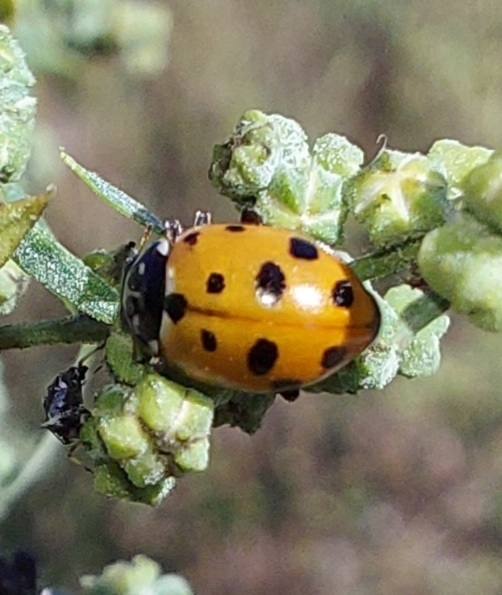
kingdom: Animalia
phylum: Arthropoda
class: Insecta
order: Coleoptera
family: Coccinellidae
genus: Hippodamia
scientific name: Hippodamia variegata
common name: Ladybird beetle
